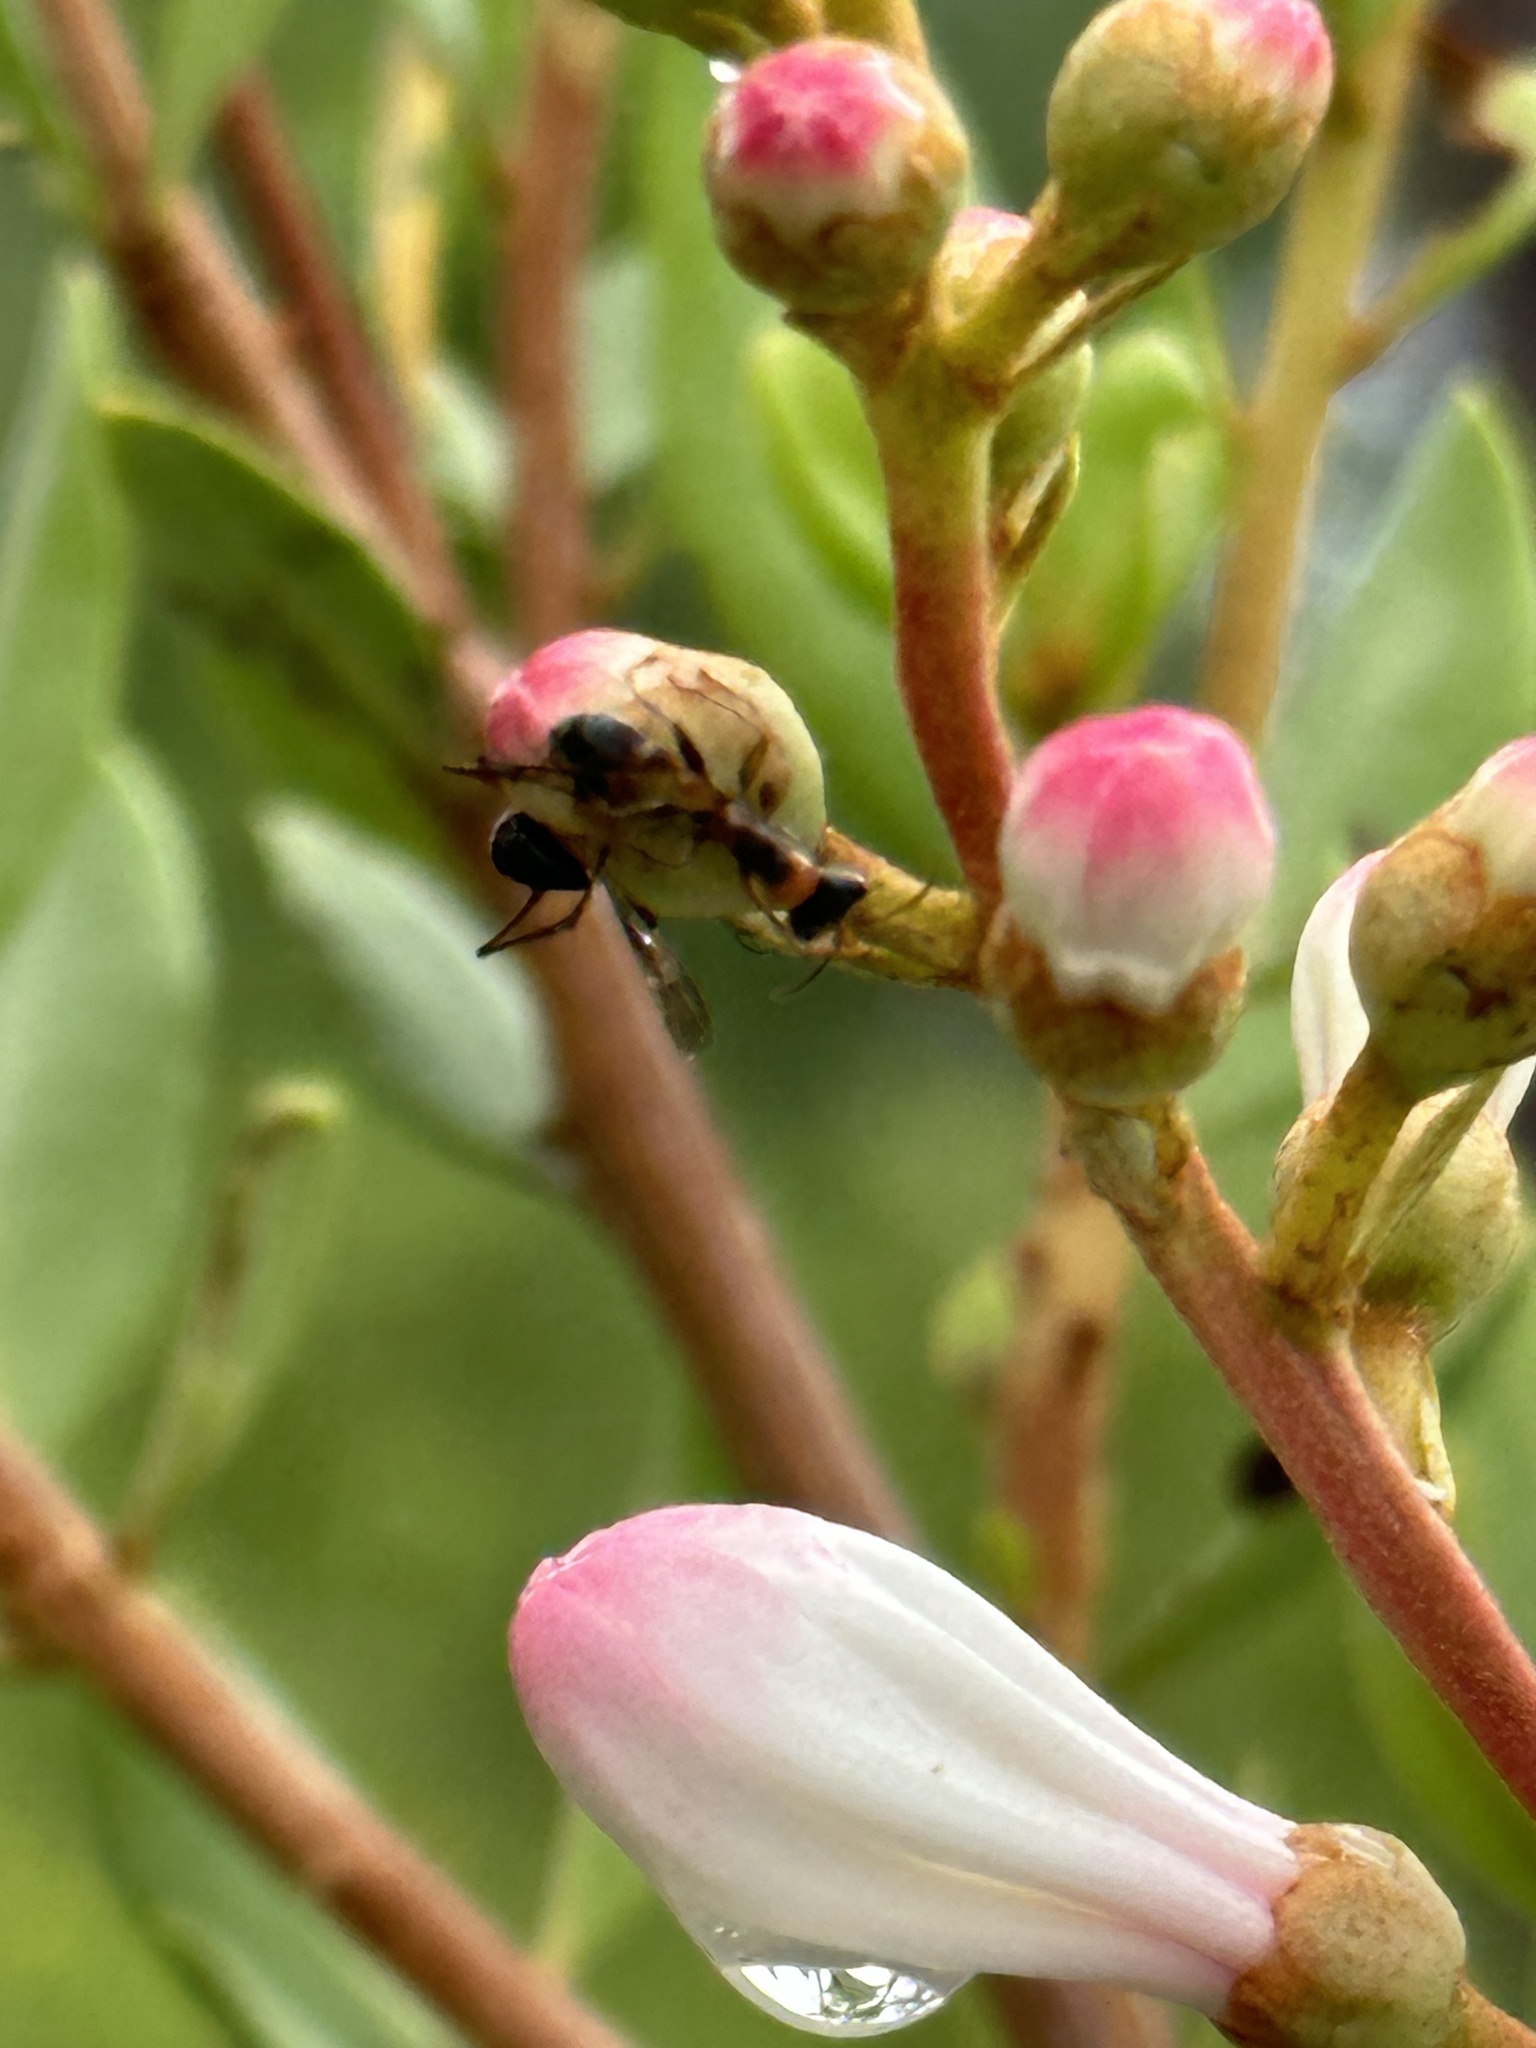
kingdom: Animalia
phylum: Arthropoda
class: Insecta
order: Hymenoptera
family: Formicidae
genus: Pseudomyrmex
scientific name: Pseudomyrmex gracilis
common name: Graceful twig ant
